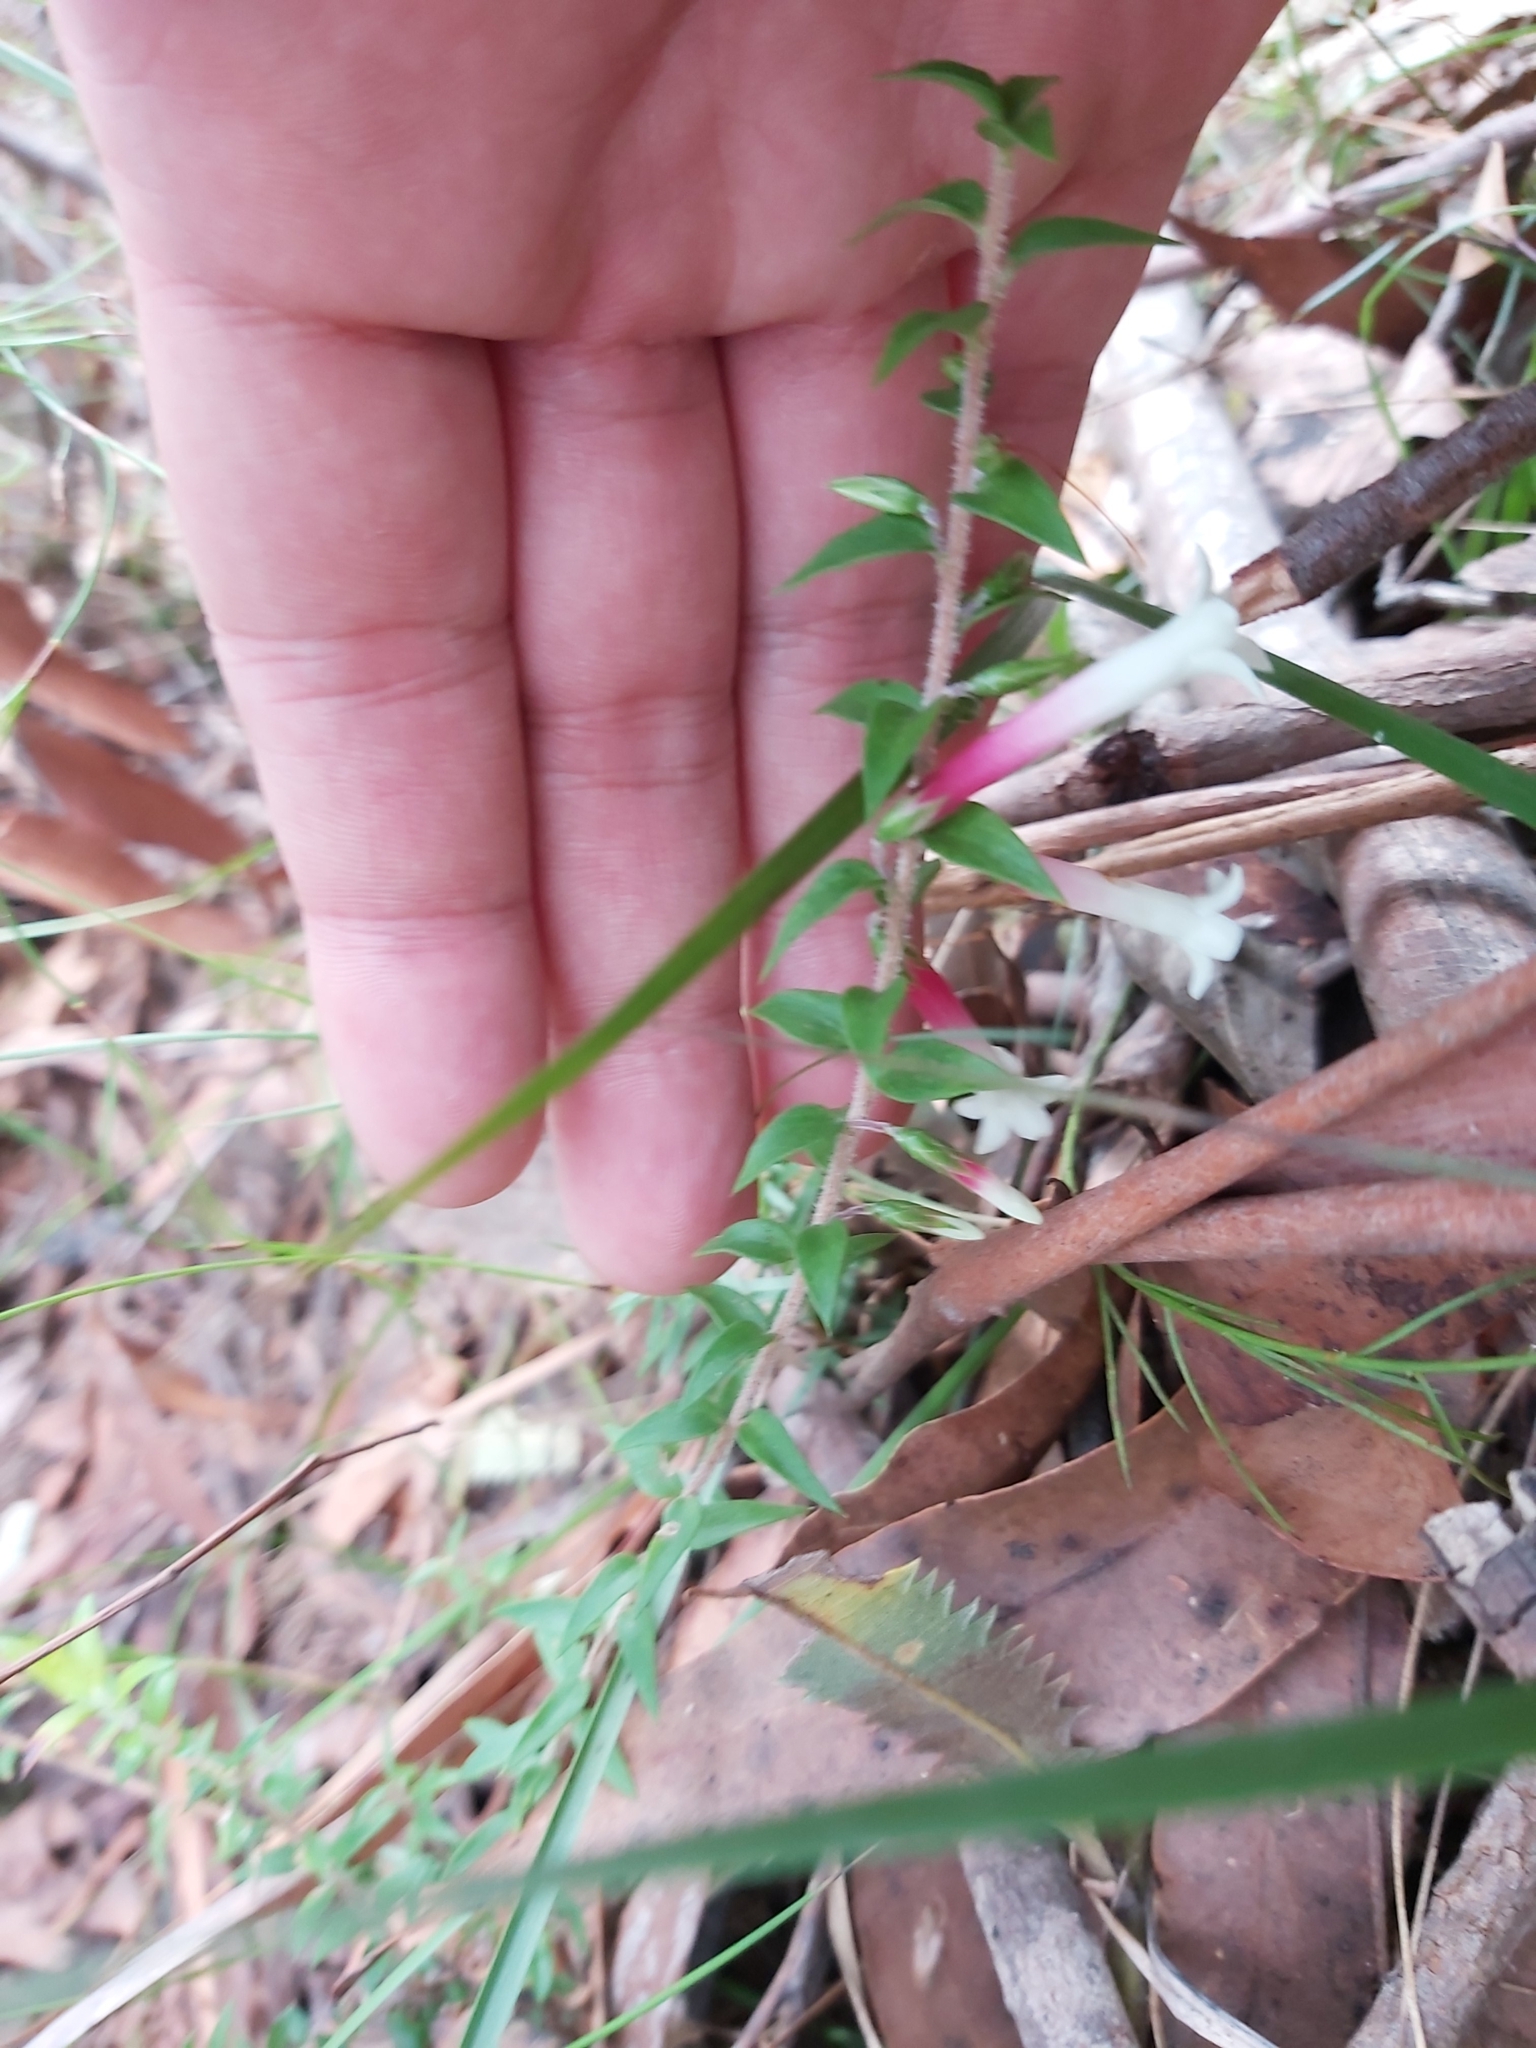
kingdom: Plantae
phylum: Tracheophyta
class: Magnoliopsida
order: Ericales
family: Ericaceae
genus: Epacris
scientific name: Epacris longiflora
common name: Fuchsia-heath
